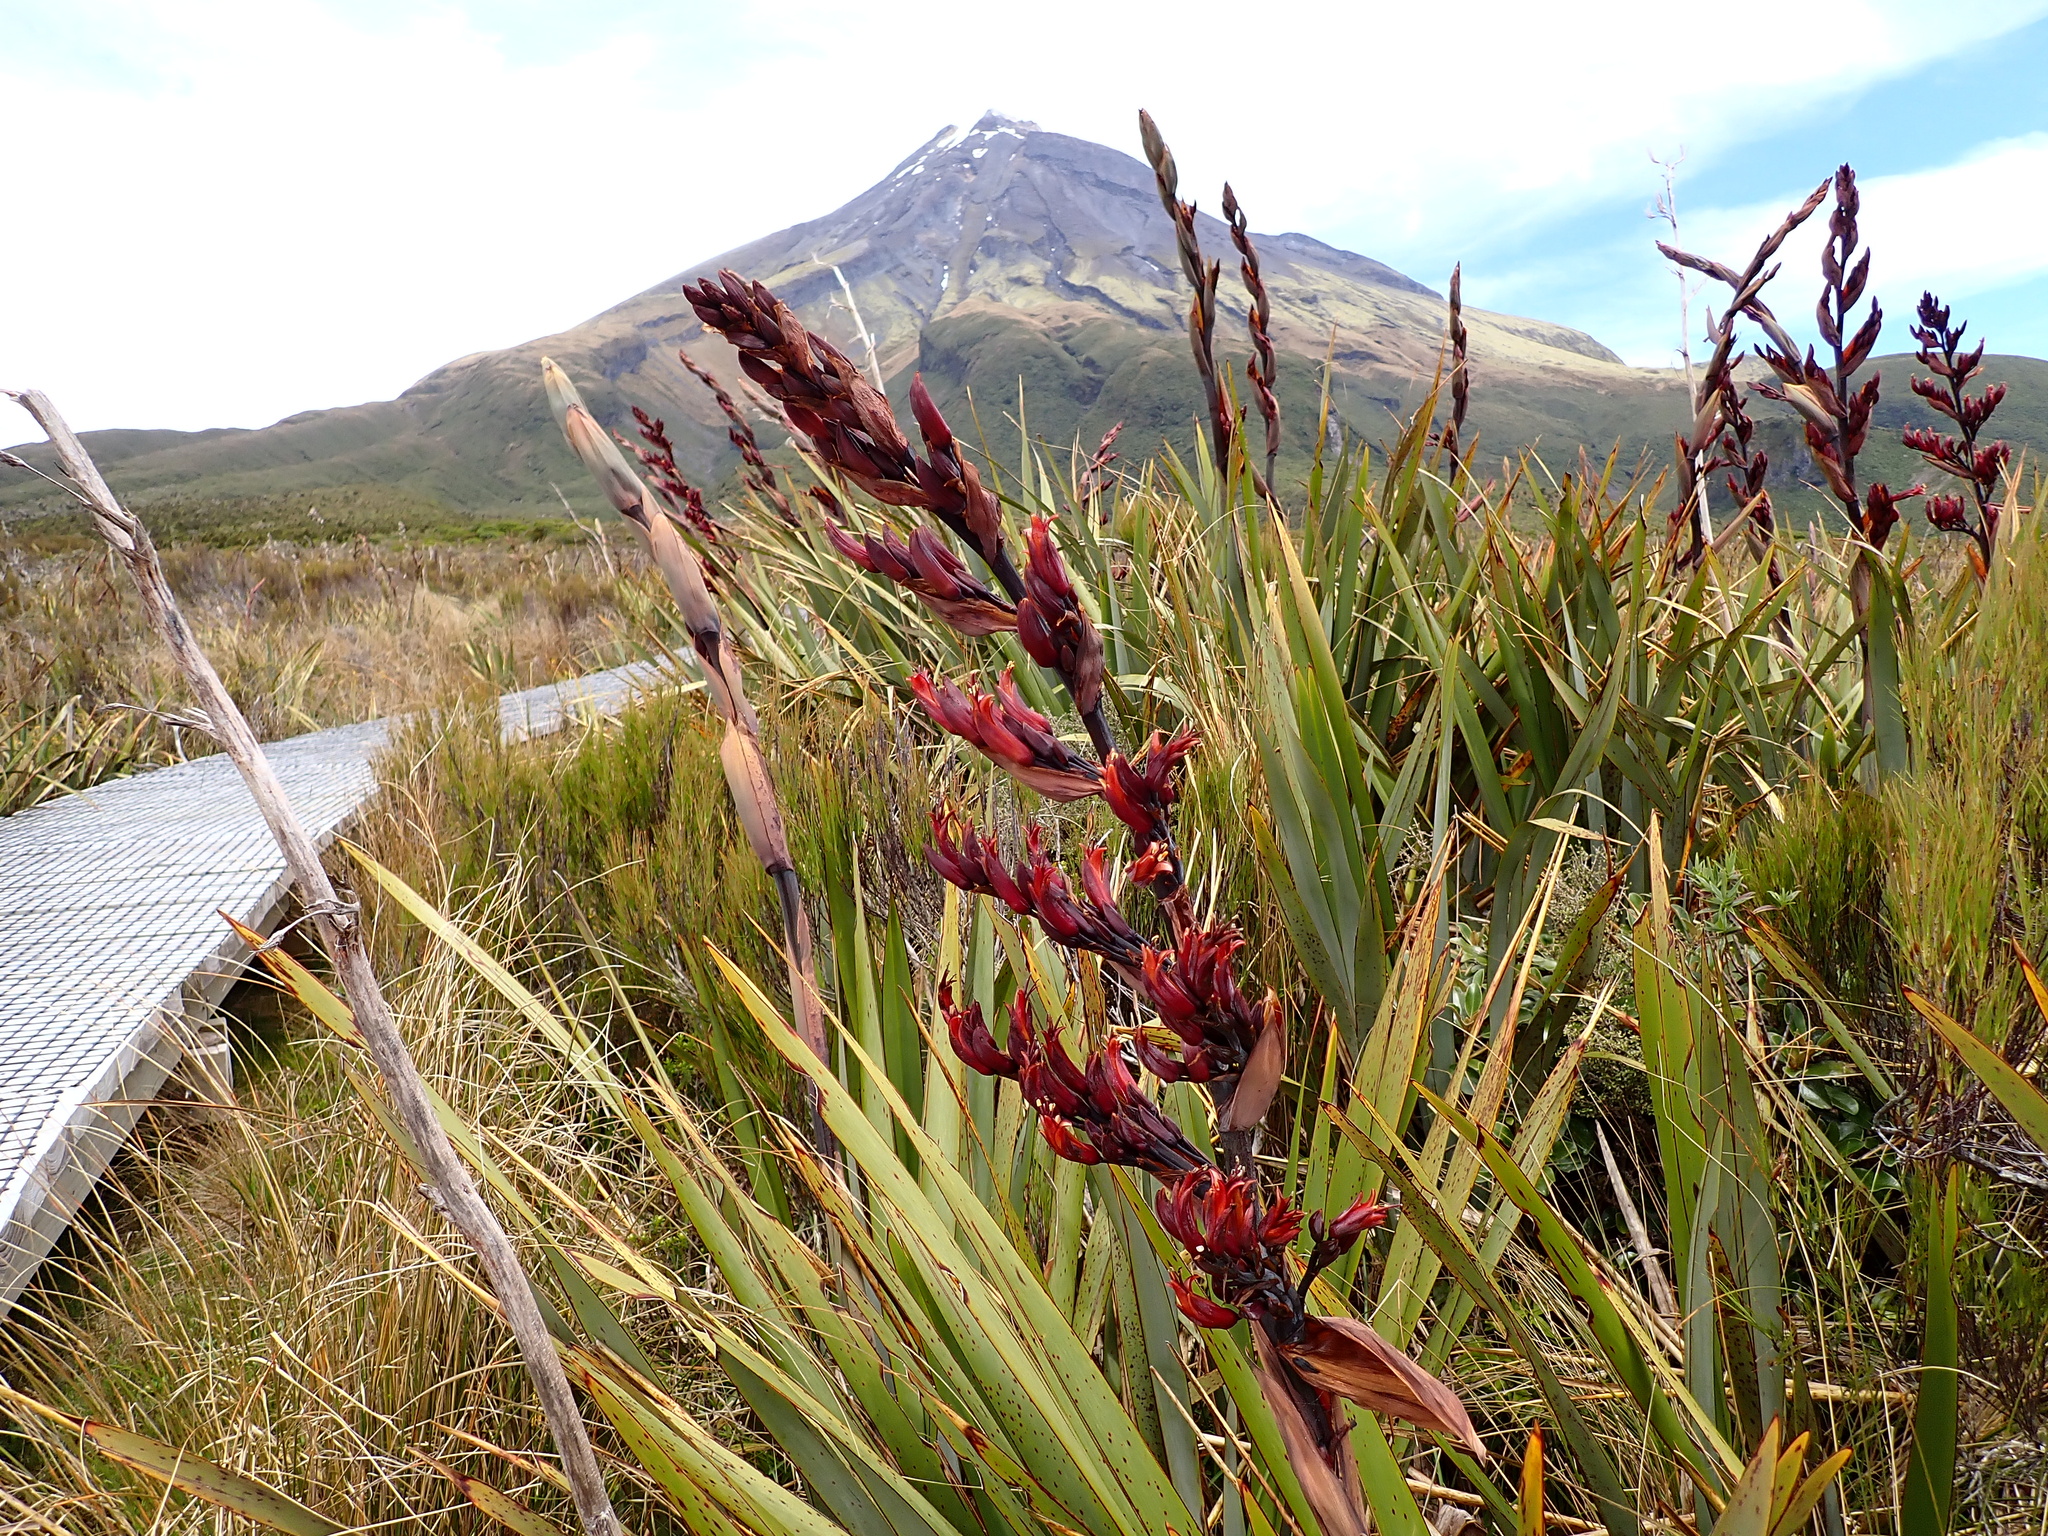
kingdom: Plantae
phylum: Tracheophyta
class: Liliopsida
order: Asparagales
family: Asphodelaceae
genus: Phormium
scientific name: Phormium tenax
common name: New zealand flax
